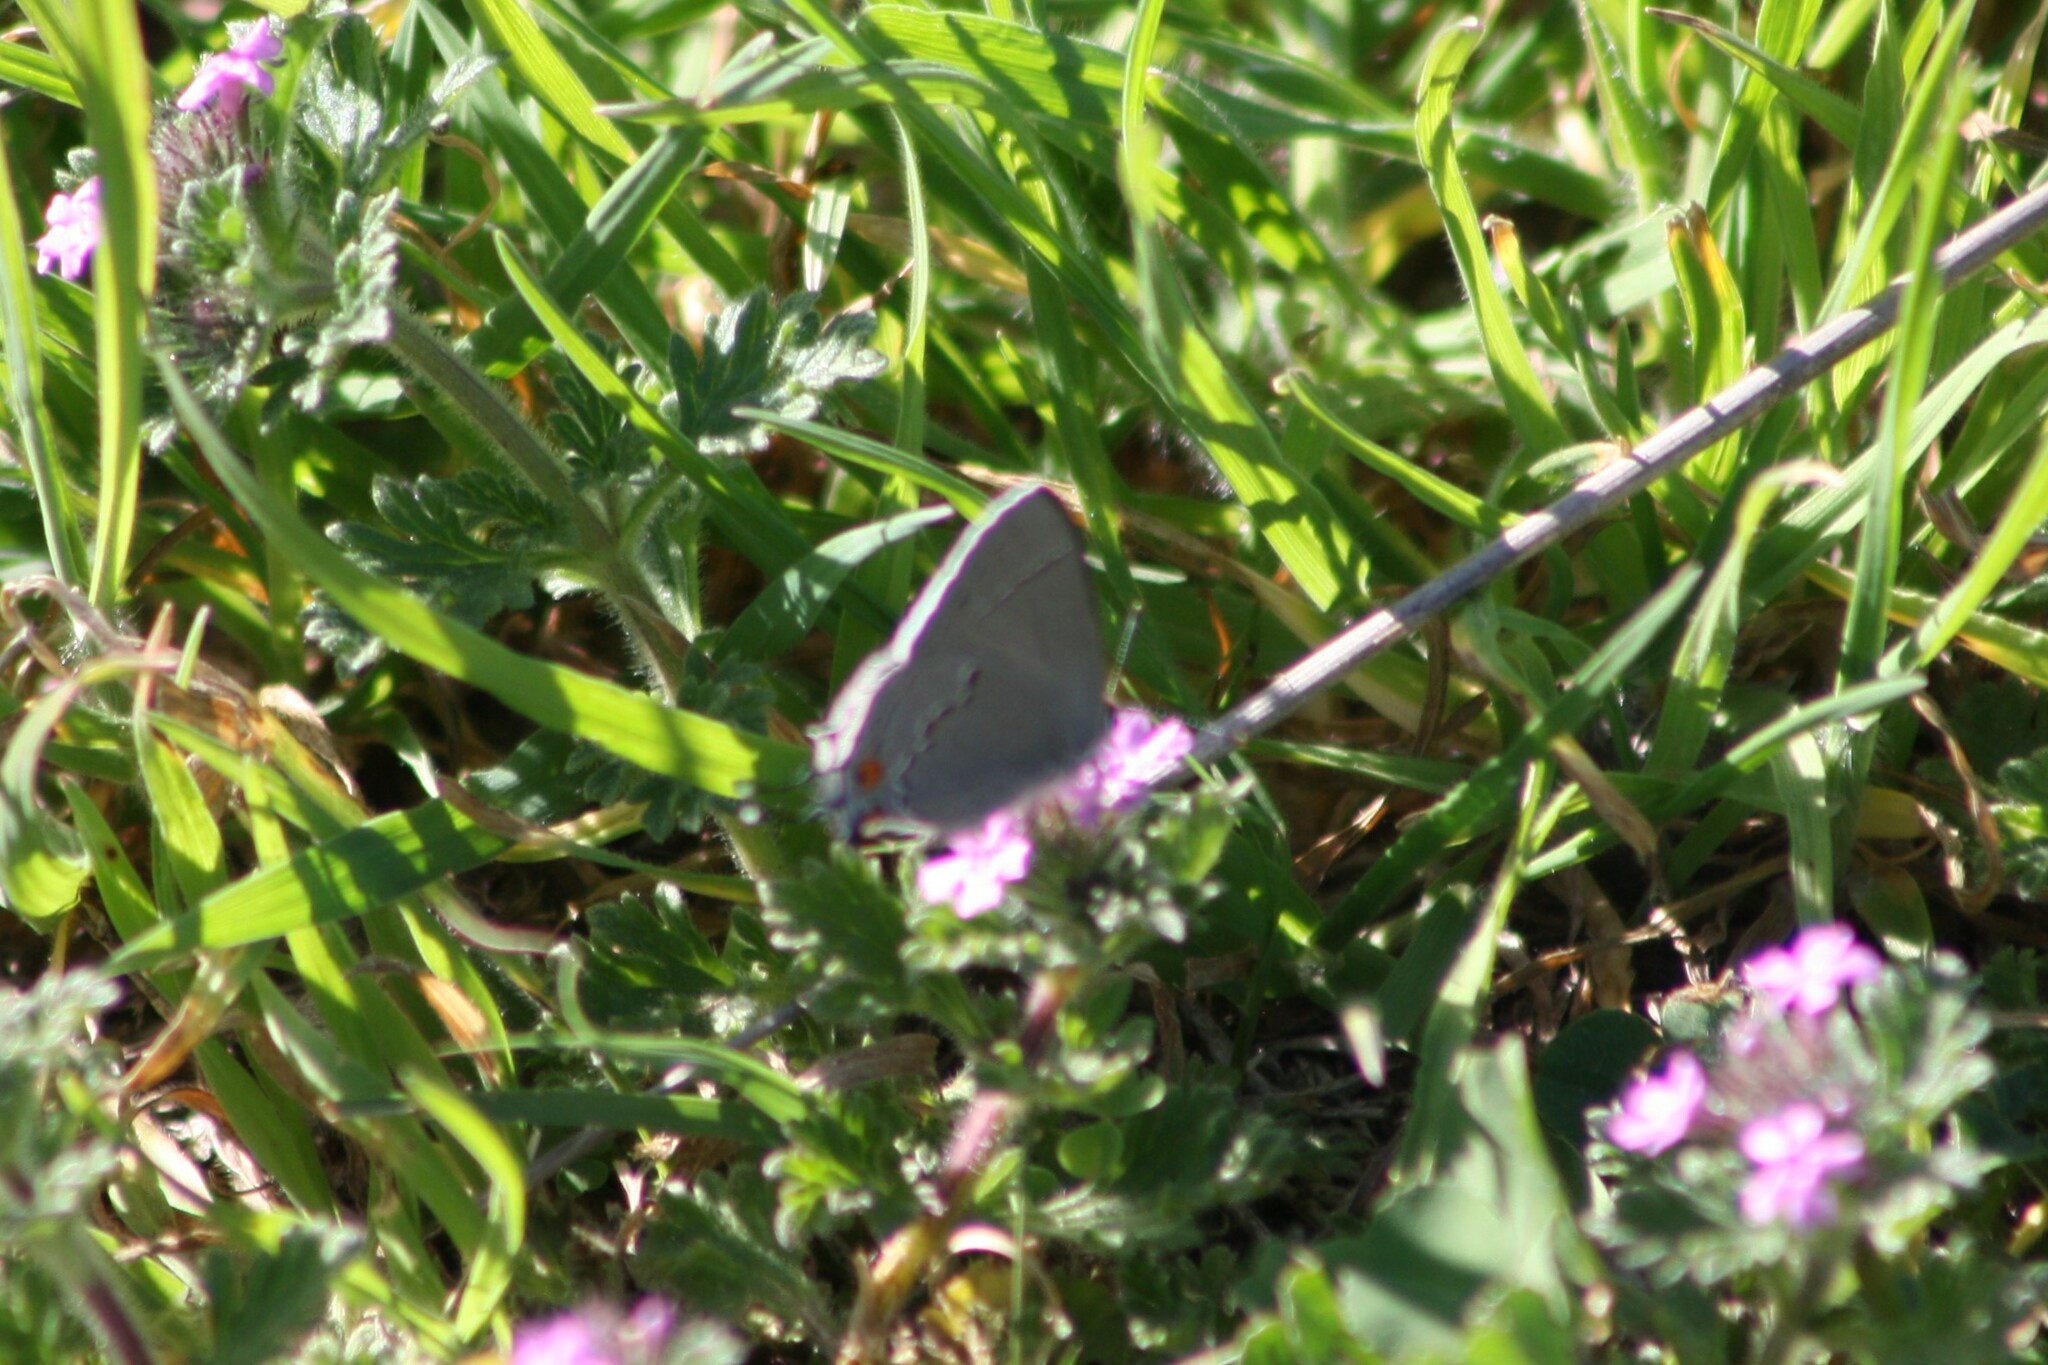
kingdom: Animalia
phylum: Arthropoda
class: Insecta
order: Lepidoptera
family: Lycaenidae
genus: Strymon
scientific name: Strymon melinus
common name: Gray hairstreak
